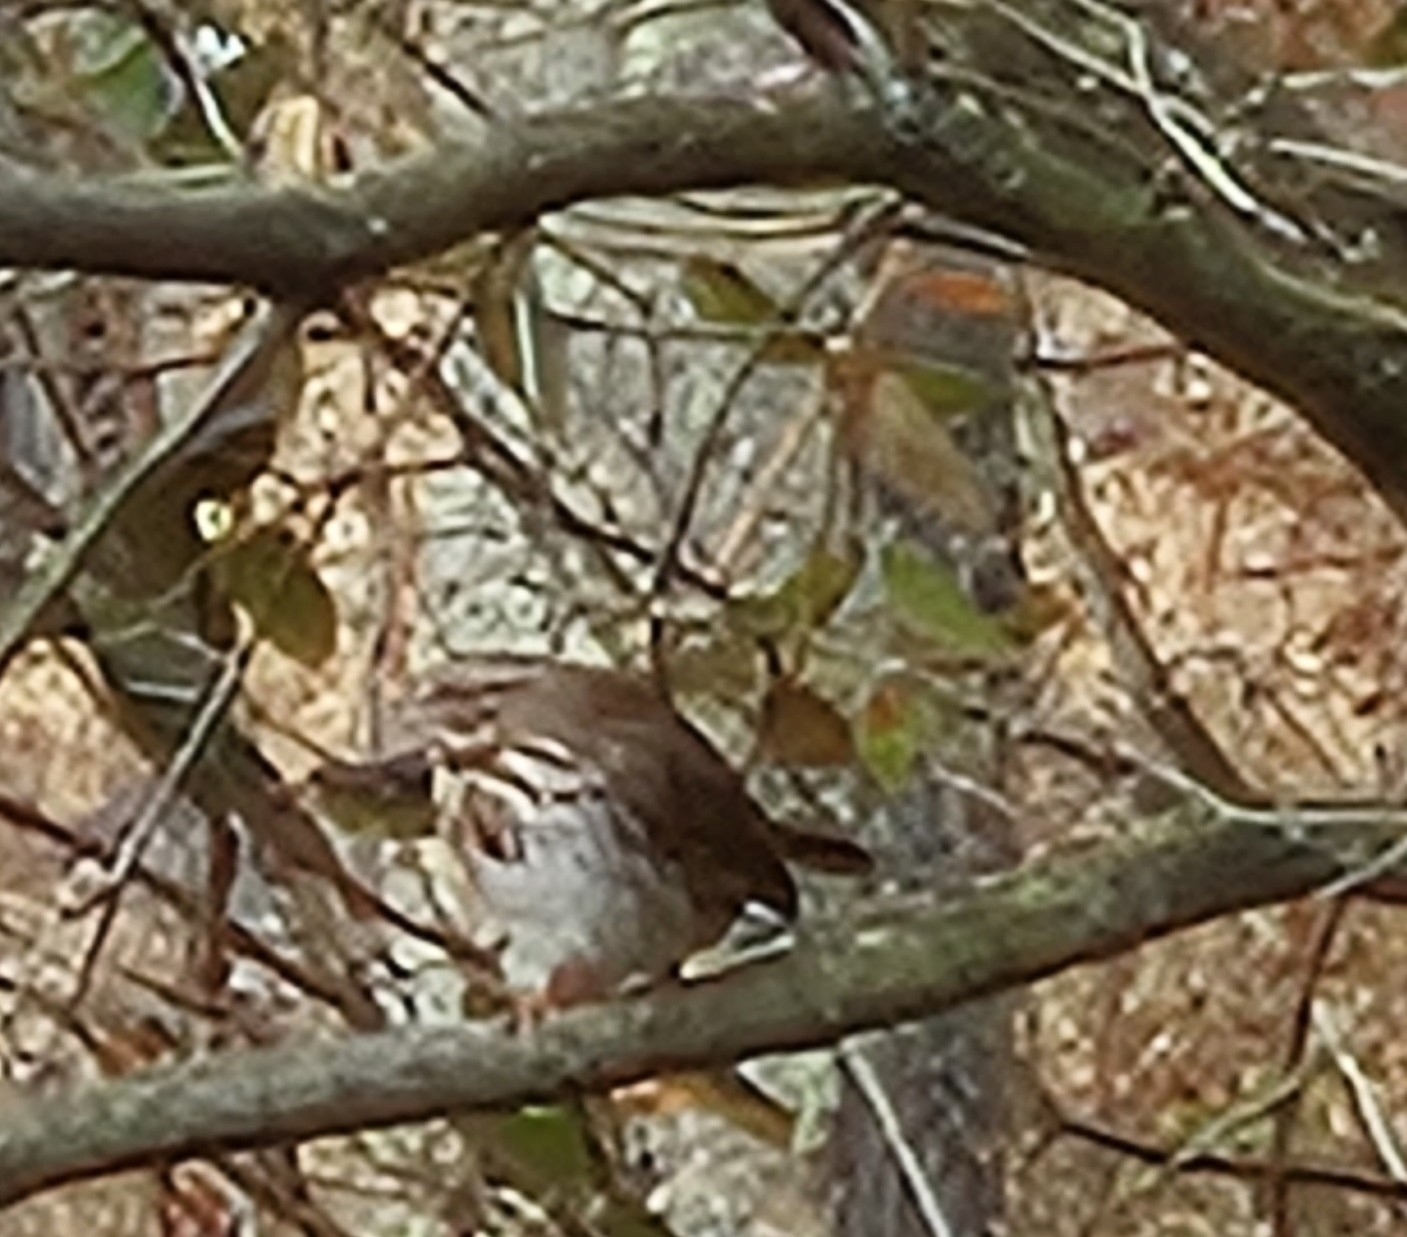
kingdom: Animalia
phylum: Chordata
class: Aves
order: Passeriformes
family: Passerellidae
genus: Melospiza
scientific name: Melospiza melodia
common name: Song sparrow
